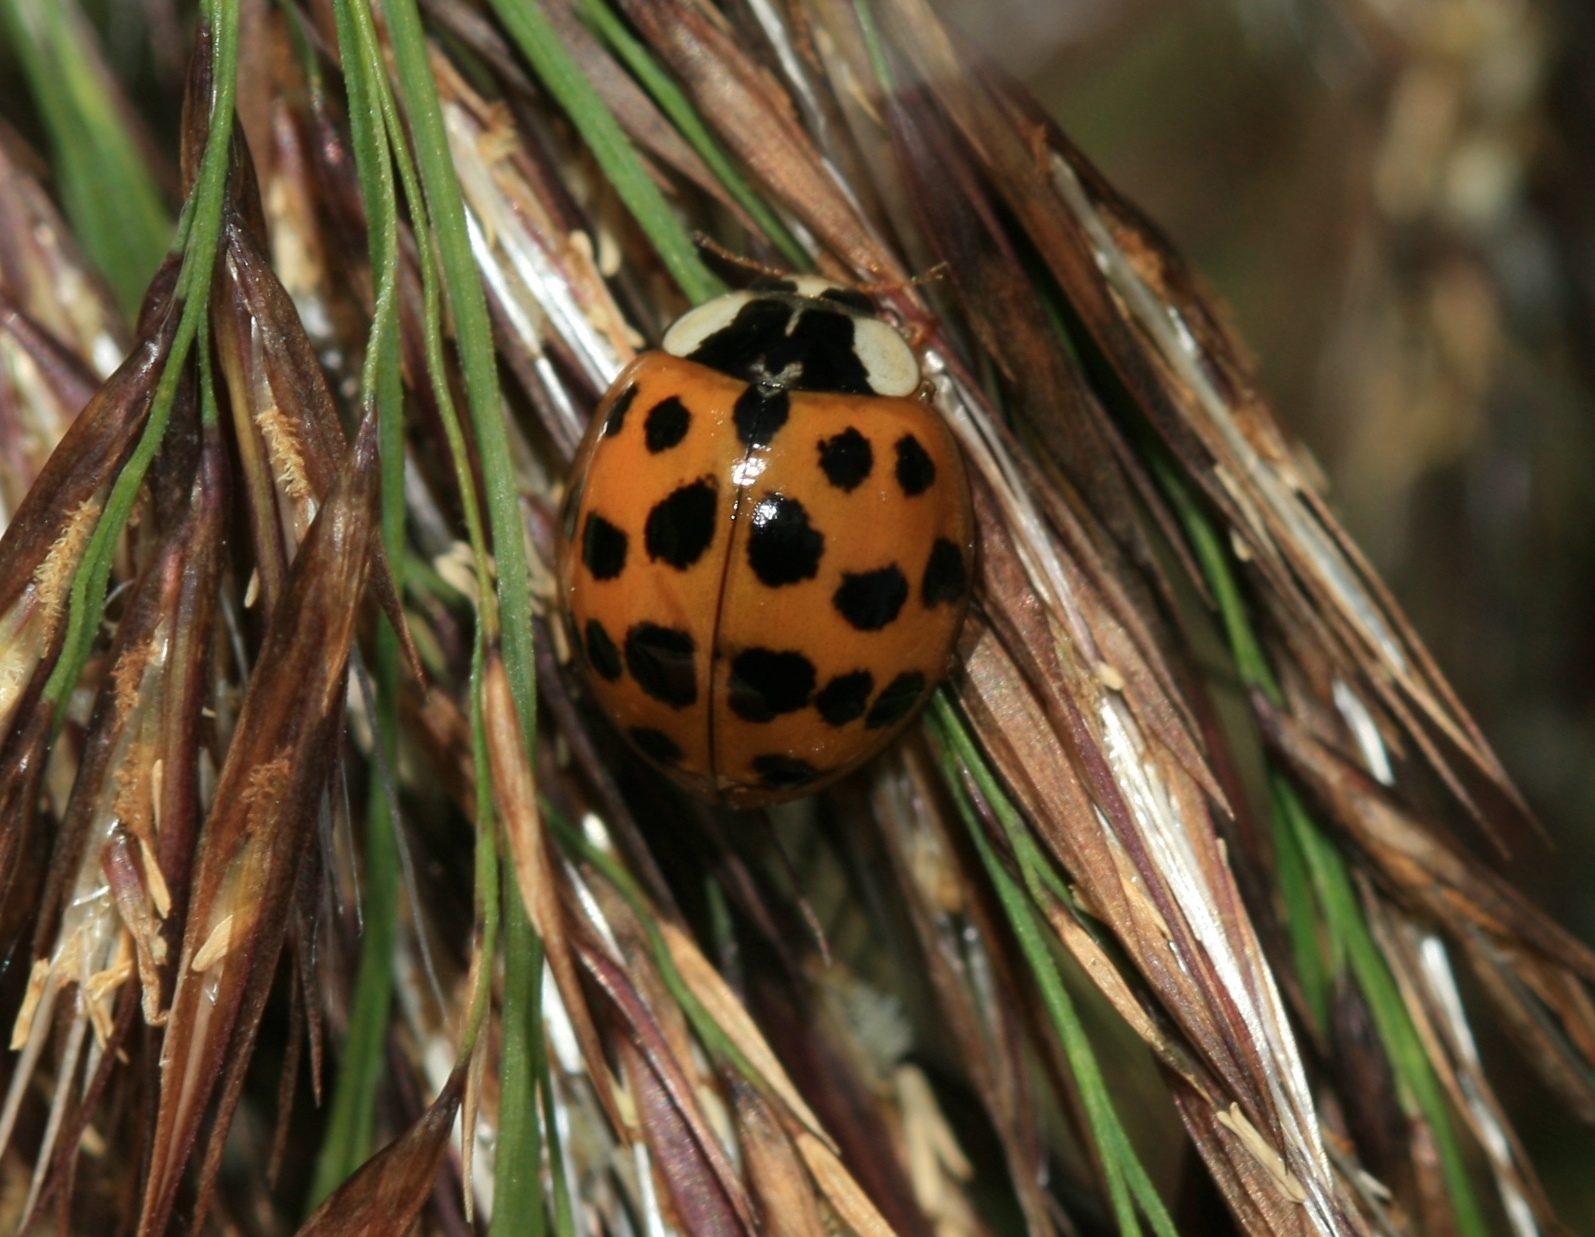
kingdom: Animalia
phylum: Arthropoda
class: Insecta
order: Coleoptera
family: Coccinellidae
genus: Harmonia
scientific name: Harmonia axyridis
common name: Harlequin ladybird
